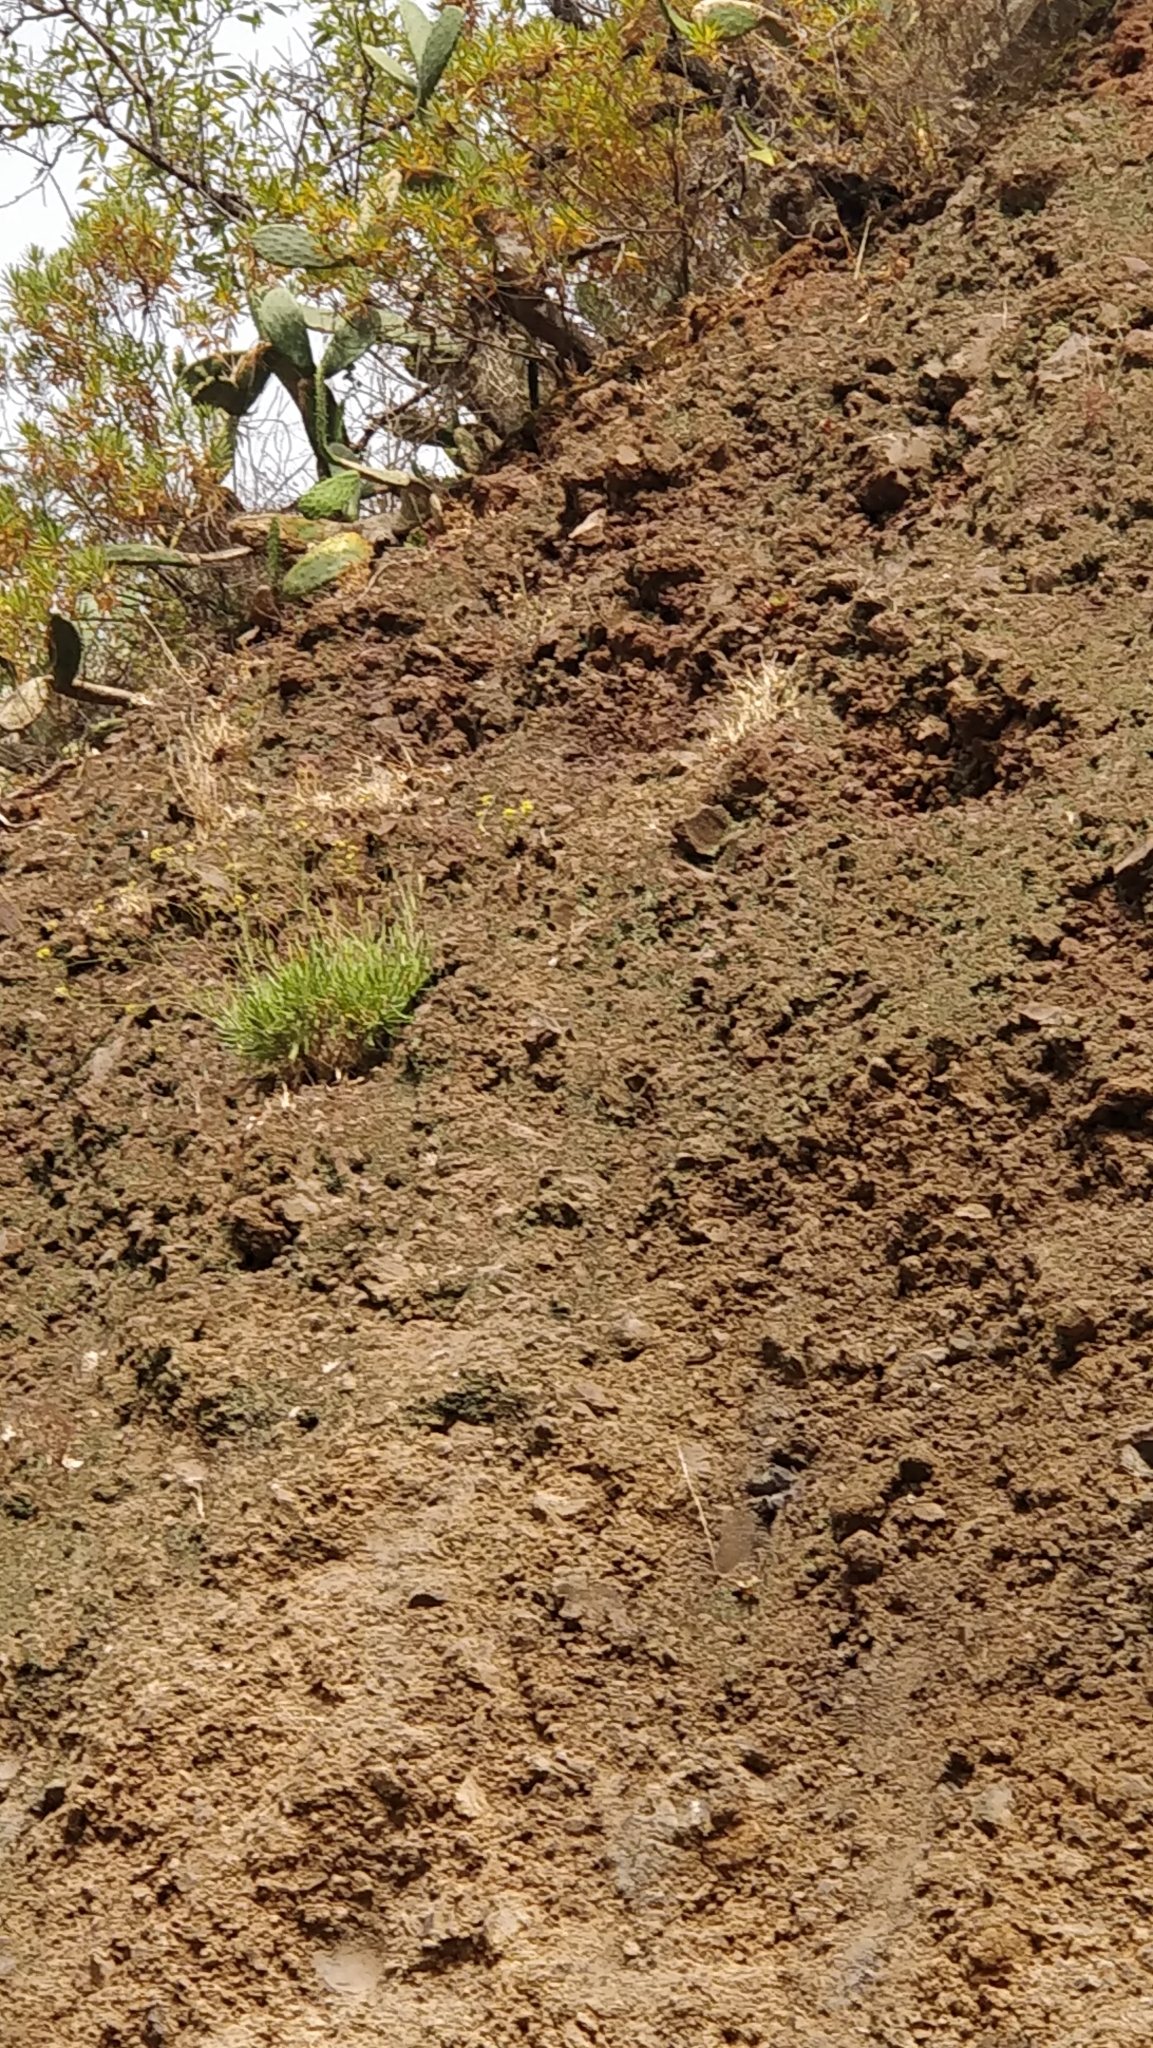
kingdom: Plantae
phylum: Tracheophyta
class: Magnoliopsida
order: Brassicales
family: Brassicaceae
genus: Sinapidendron
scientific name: Sinapidendron angustifolium
